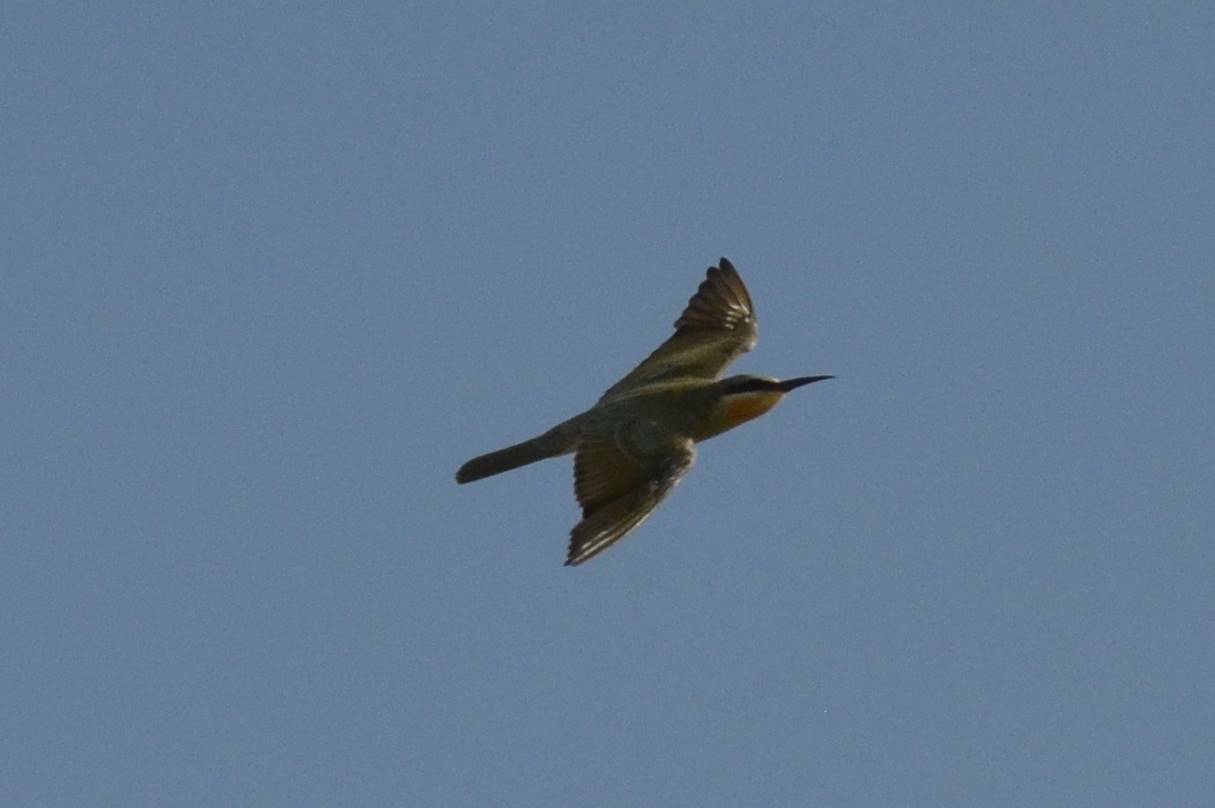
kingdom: Animalia
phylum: Chordata
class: Aves
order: Coraciiformes
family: Meropidae
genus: Merops
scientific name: Merops persicus
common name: Blue-cheeked bee-eater
